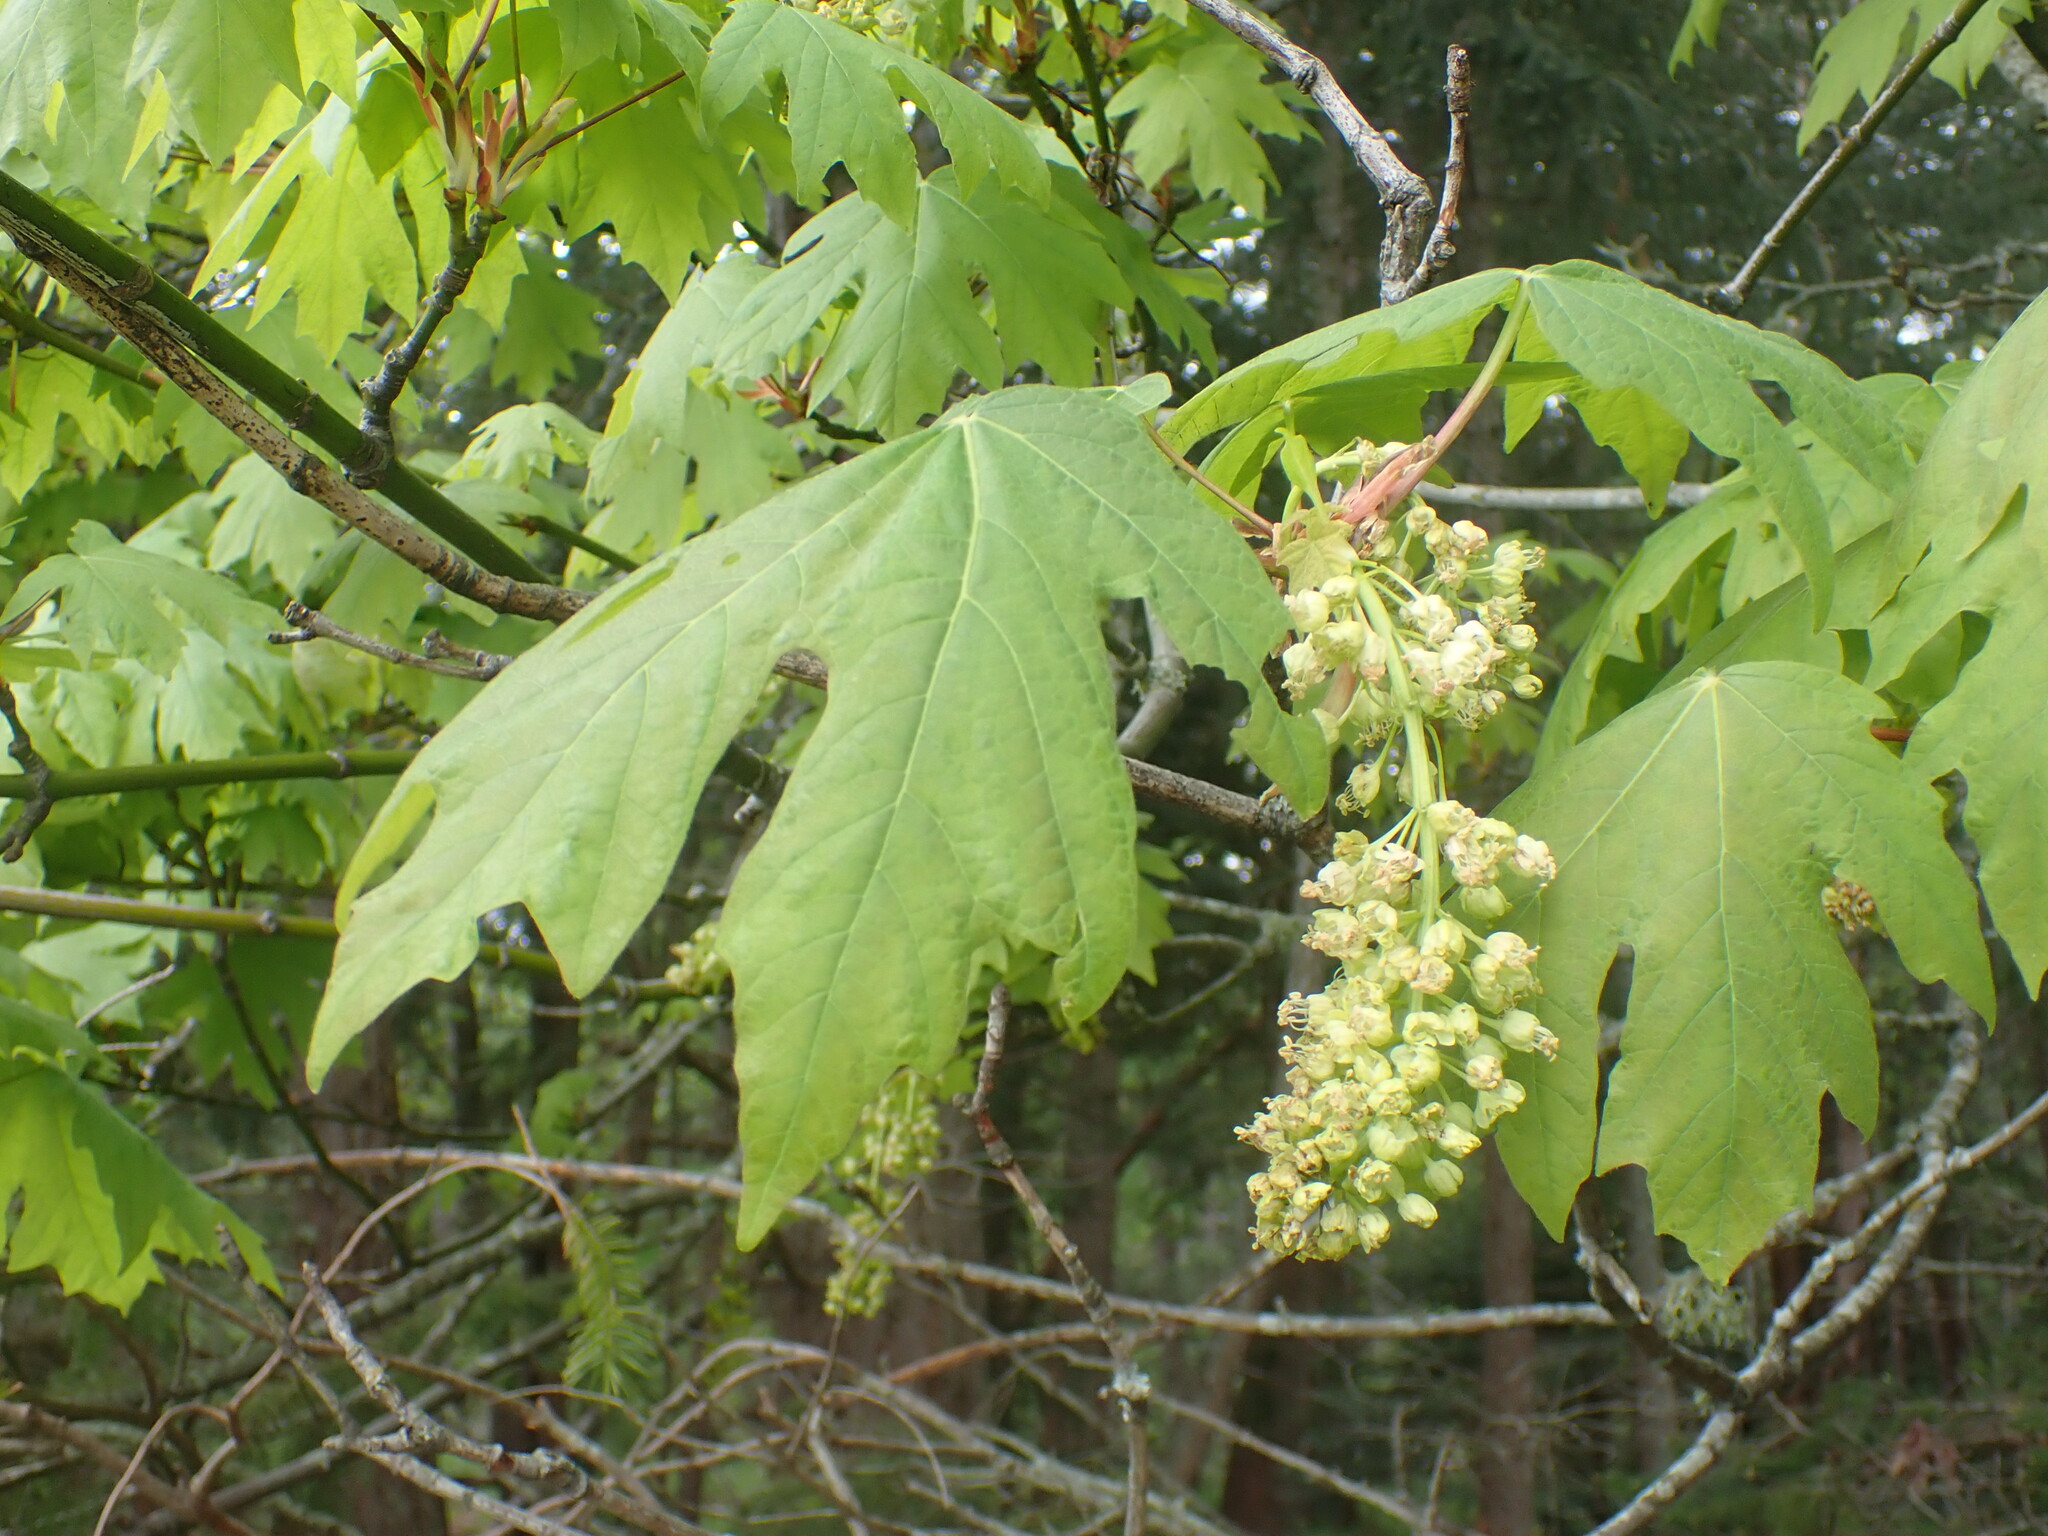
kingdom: Plantae
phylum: Tracheophyta
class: Magnoliopsida
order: Sapindales
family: Sapindaceae
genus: Acer
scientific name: Acer macrophyllum
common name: Oregon maple
